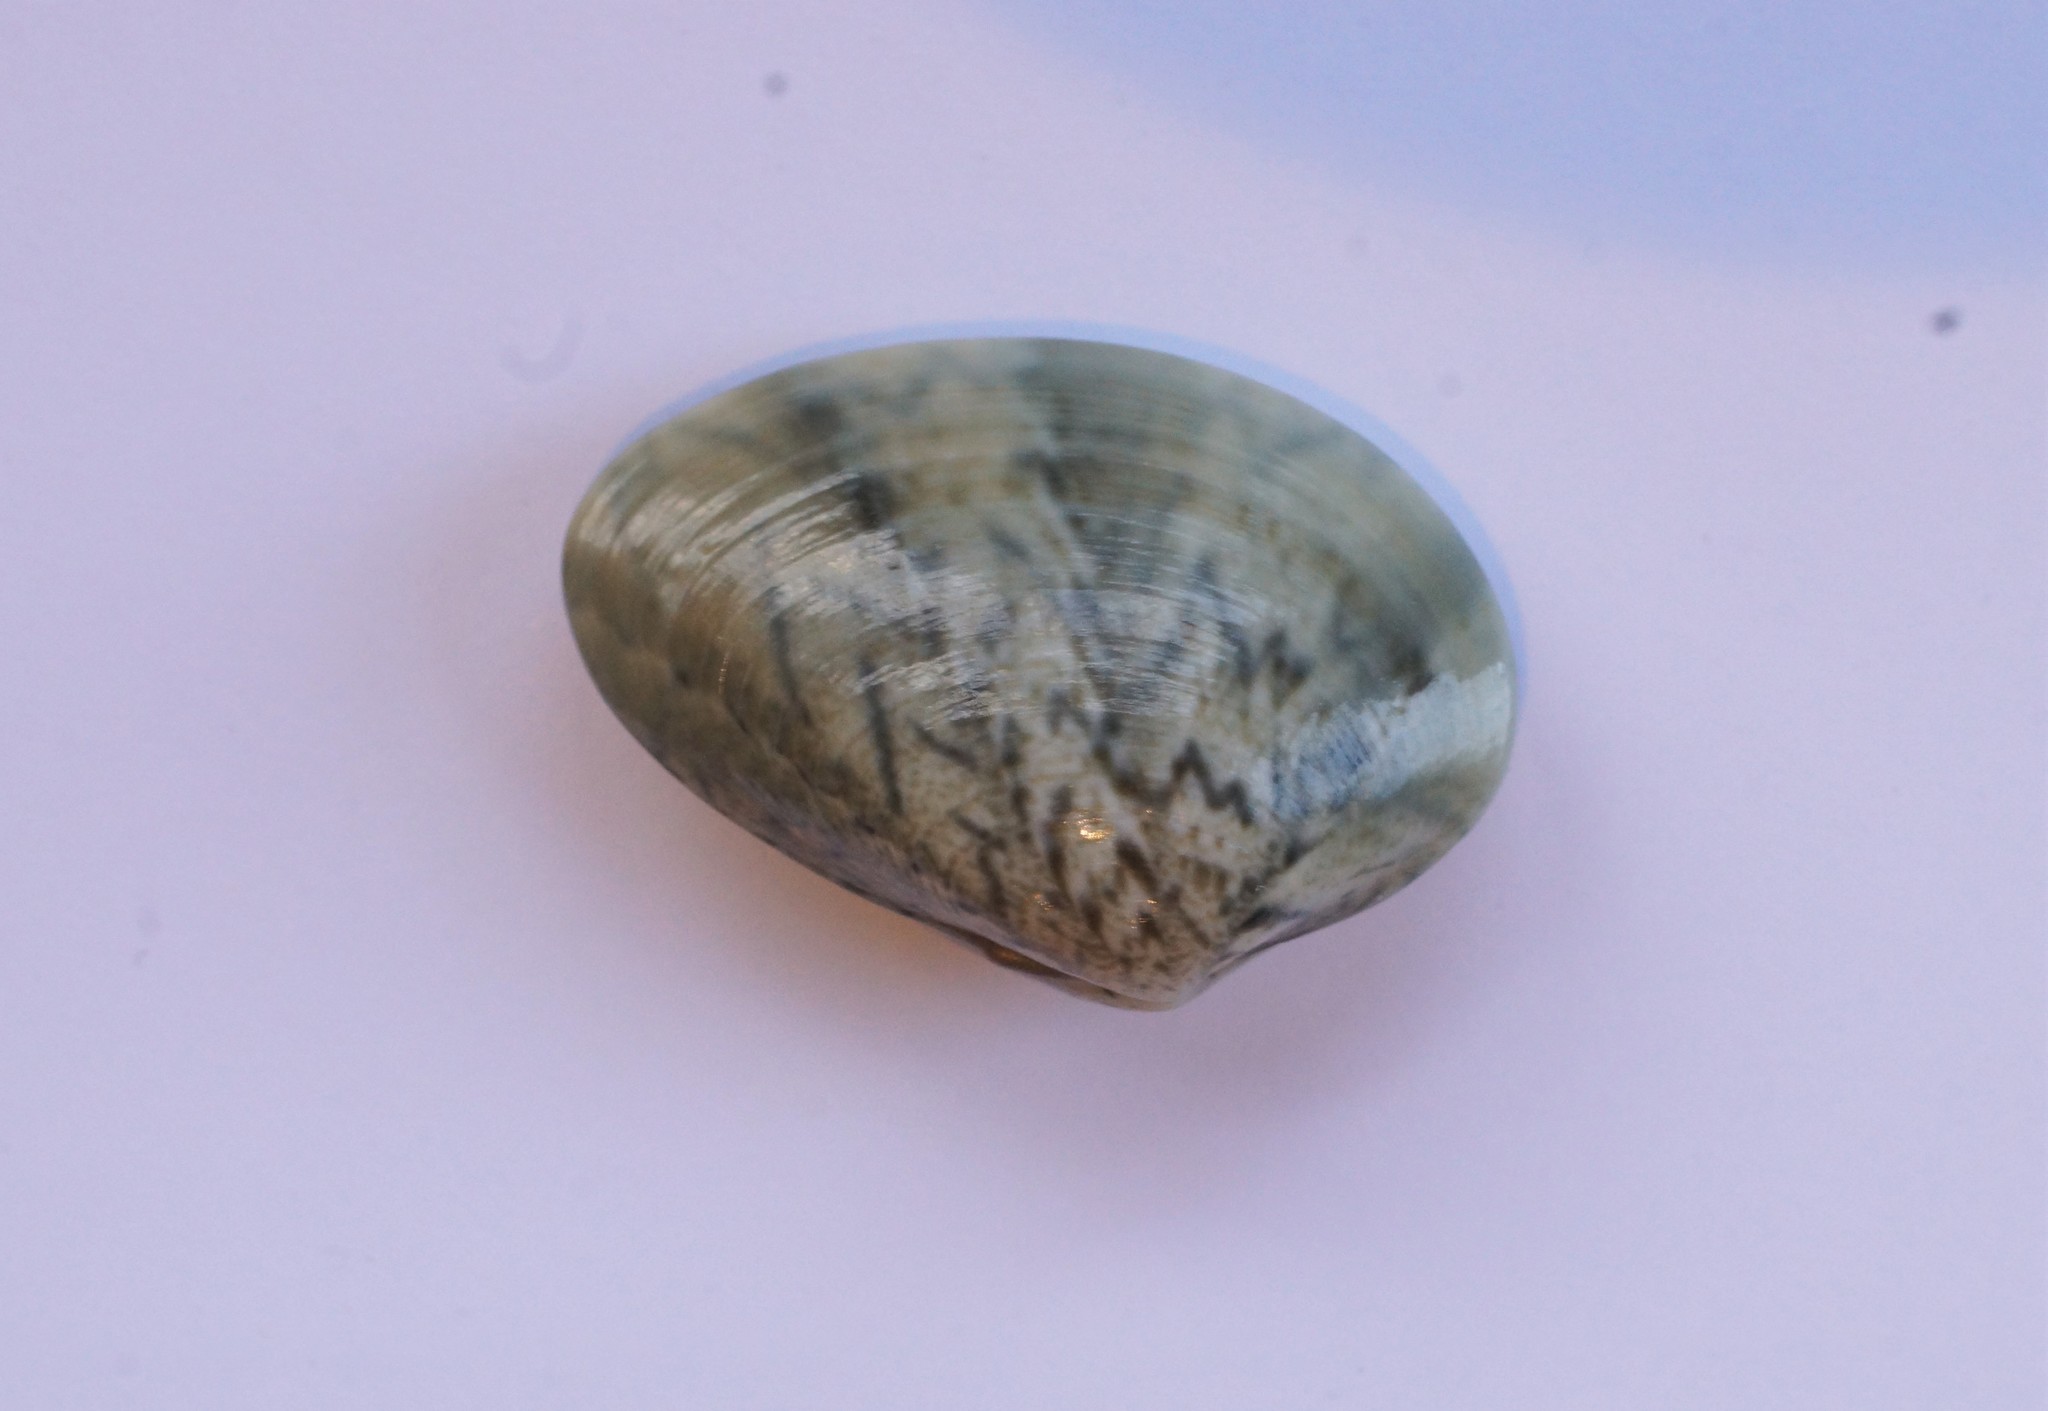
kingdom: Animalia
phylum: Mollusca
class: Bivalvia
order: Venerida
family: Veneridae
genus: Eumarcia
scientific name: Eumarcia fumigata
